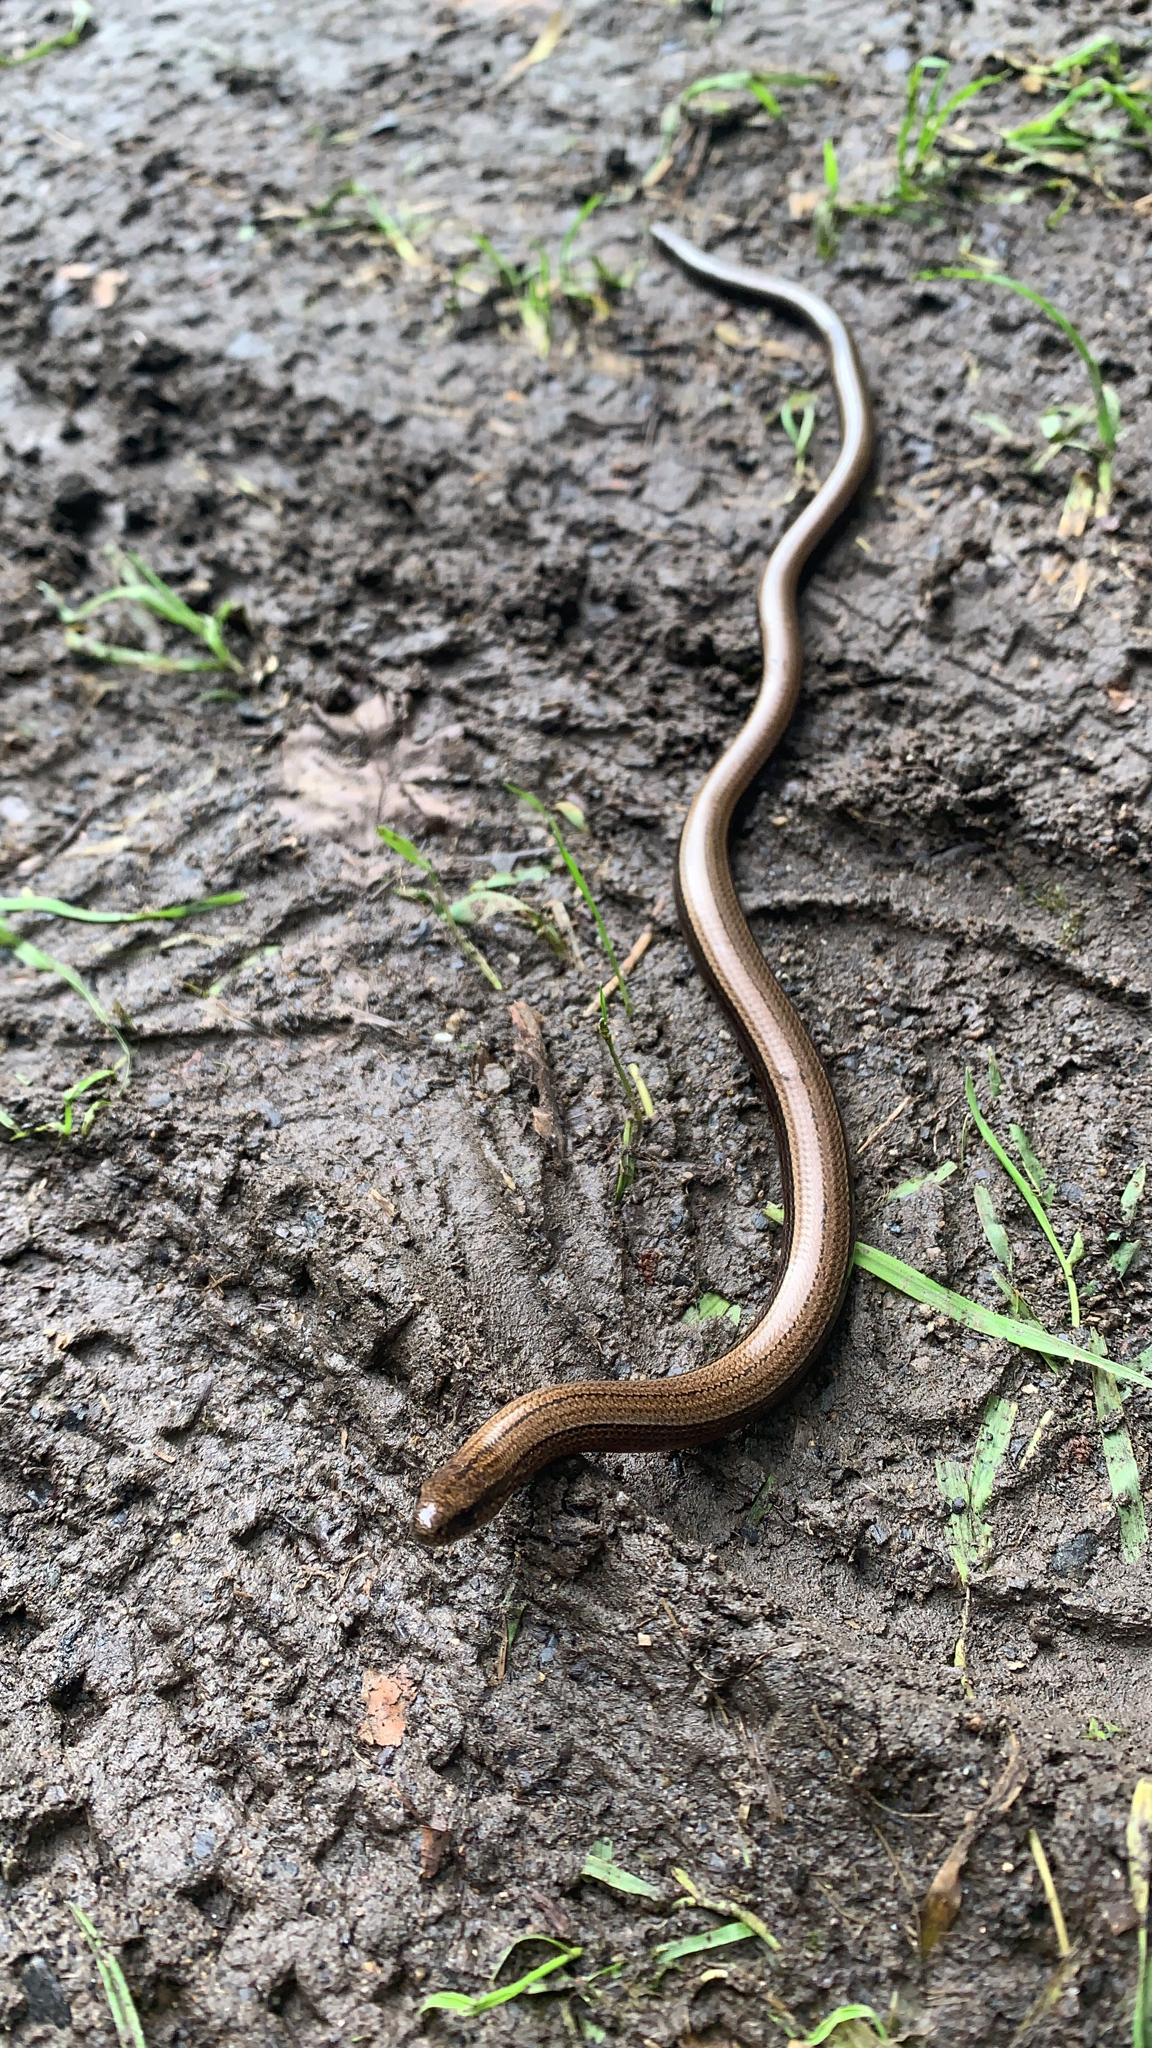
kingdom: Animalia
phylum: Chordata
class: Squamata
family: Anguidae
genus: Anguis
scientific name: Anguis fragilis
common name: Slow worm
